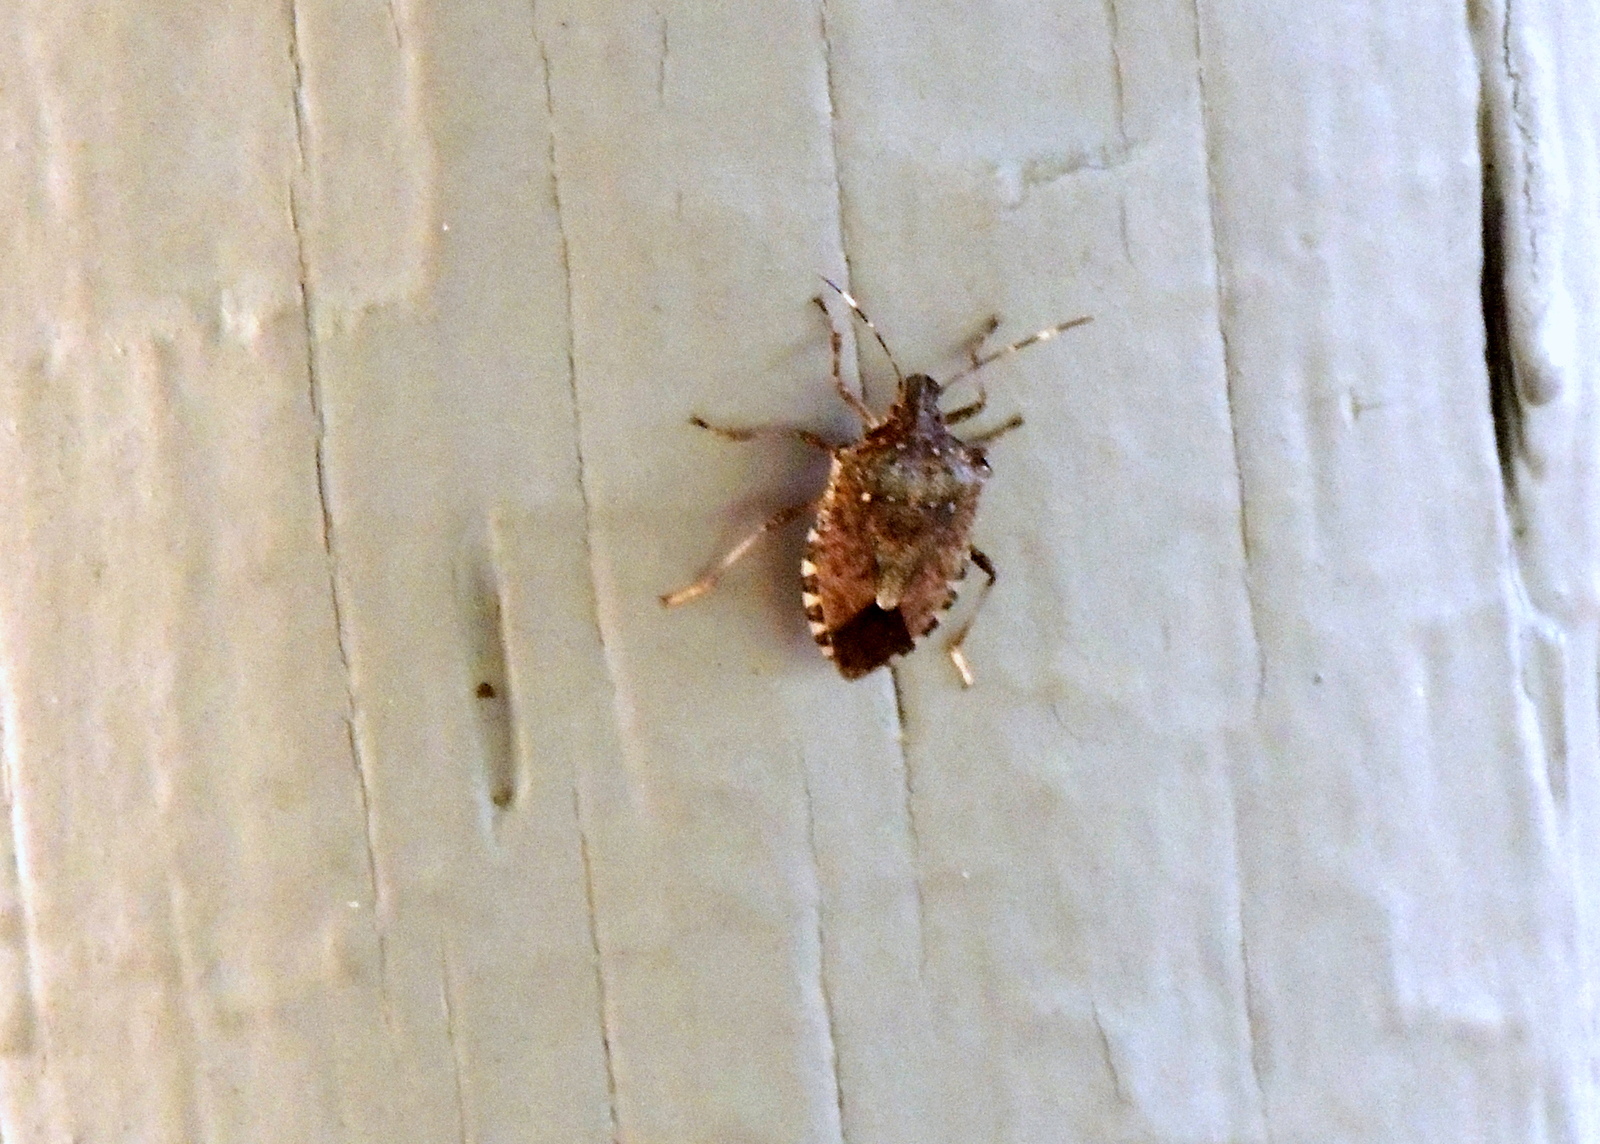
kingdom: Animalia
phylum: Arthropoda
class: Insecta
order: Hemiptera
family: Pentatomidae
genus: Halyomorpha
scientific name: Halyomorpha halys
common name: Brown marmorated stink bug
